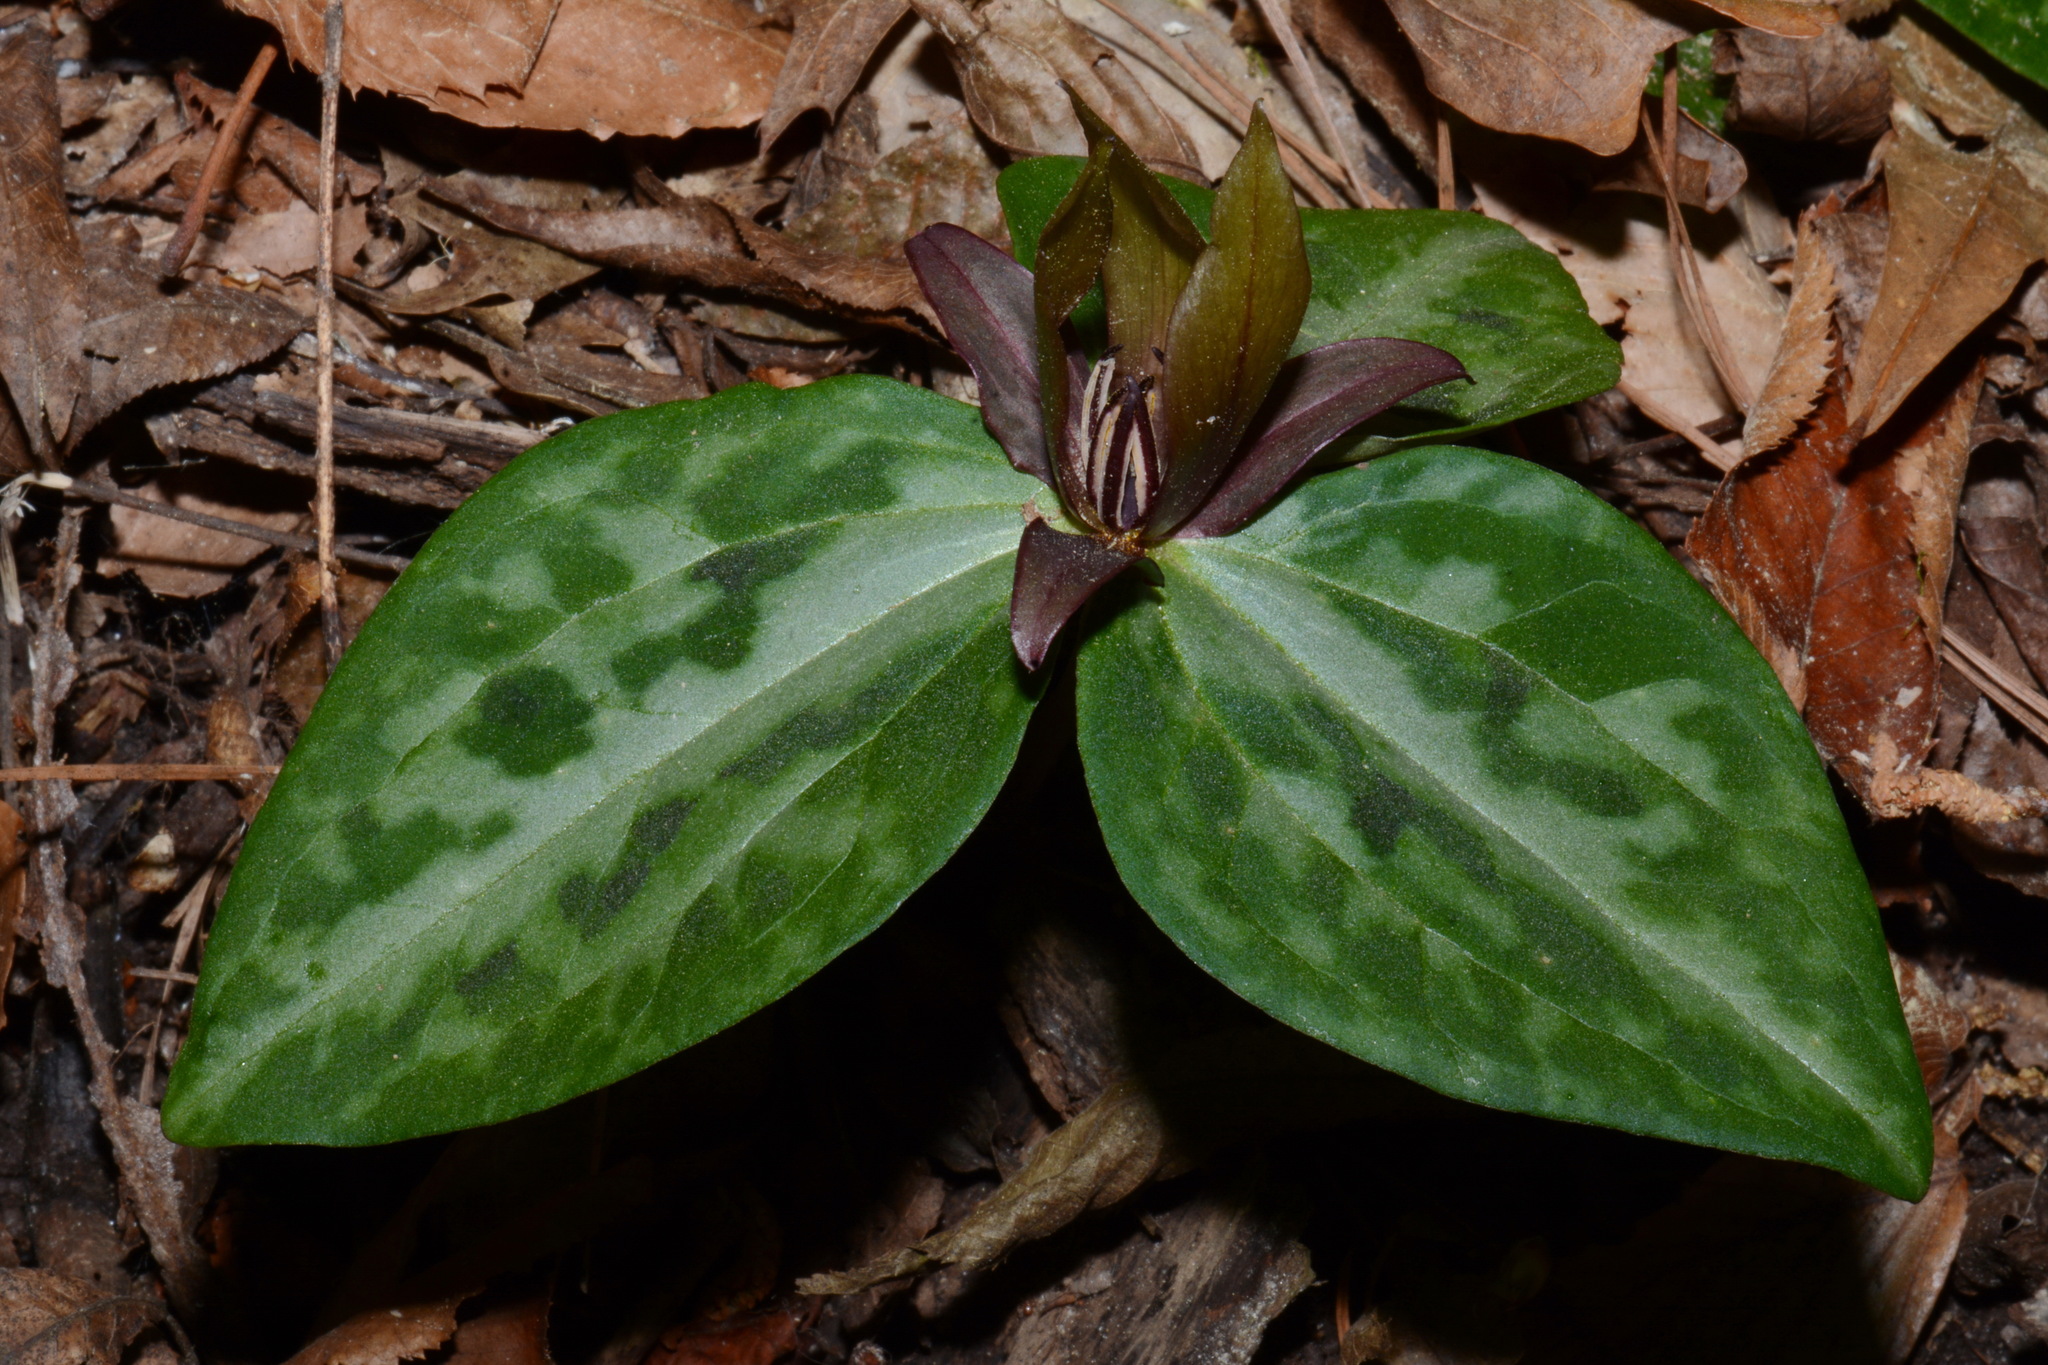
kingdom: Plantae
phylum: Tracheophyta
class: Liliopsida
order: Liliales
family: Melanthiaceae
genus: Trillium
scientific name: Trillium reliquum
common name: Relict trillium
